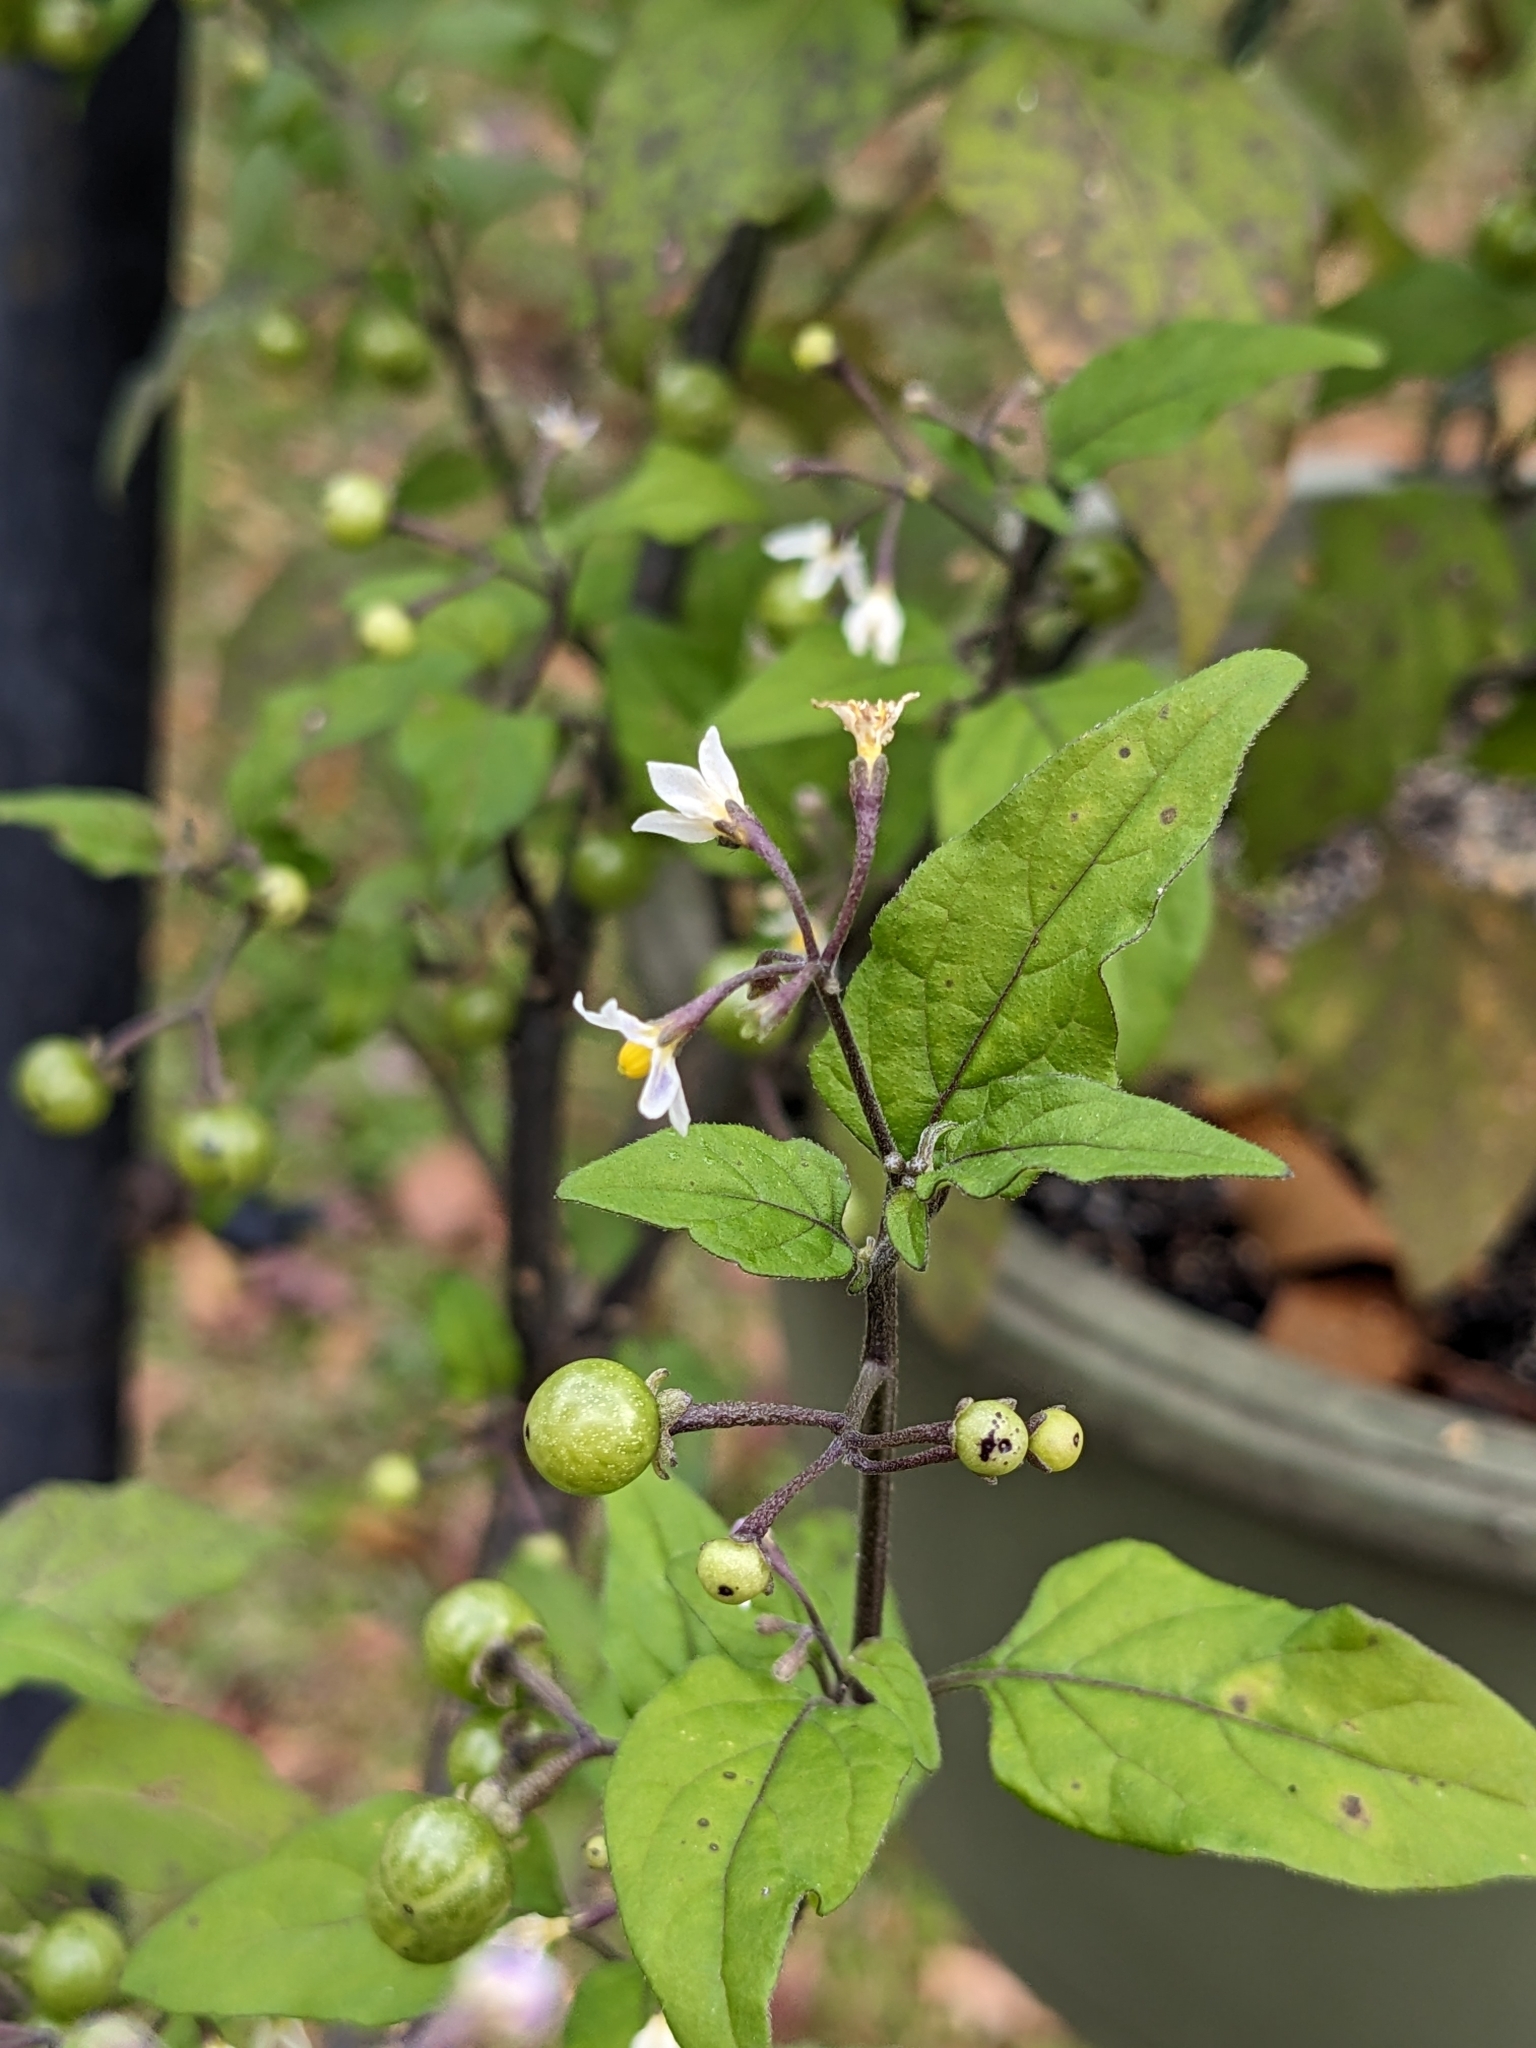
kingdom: Plantae
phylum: Tracheophyta
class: Magnoliopsida
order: Solanales
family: Solanaceae
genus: Solanum
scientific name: Solanum americanum
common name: American black nightshade
